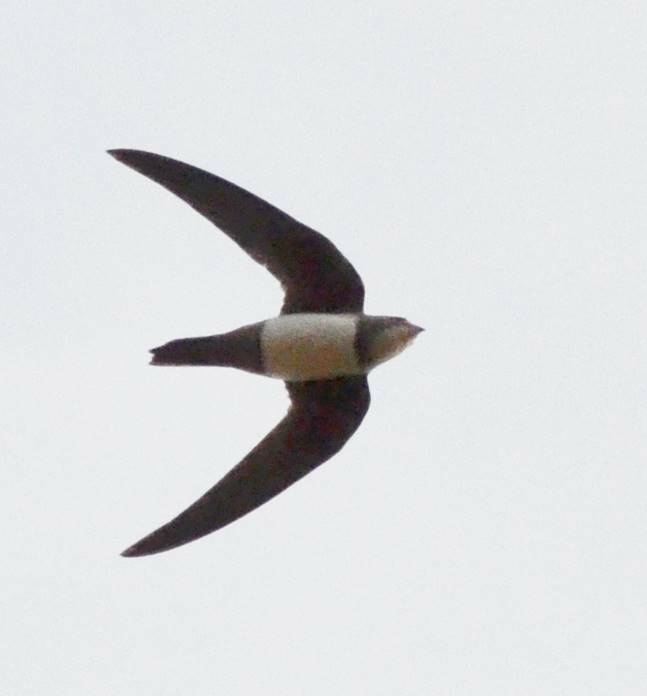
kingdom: Animalia
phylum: Chordata
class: Aves
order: Apodiformes
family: Apodidae
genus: Tachymarptis
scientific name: Tachymarptis melba
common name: Alpine swift
